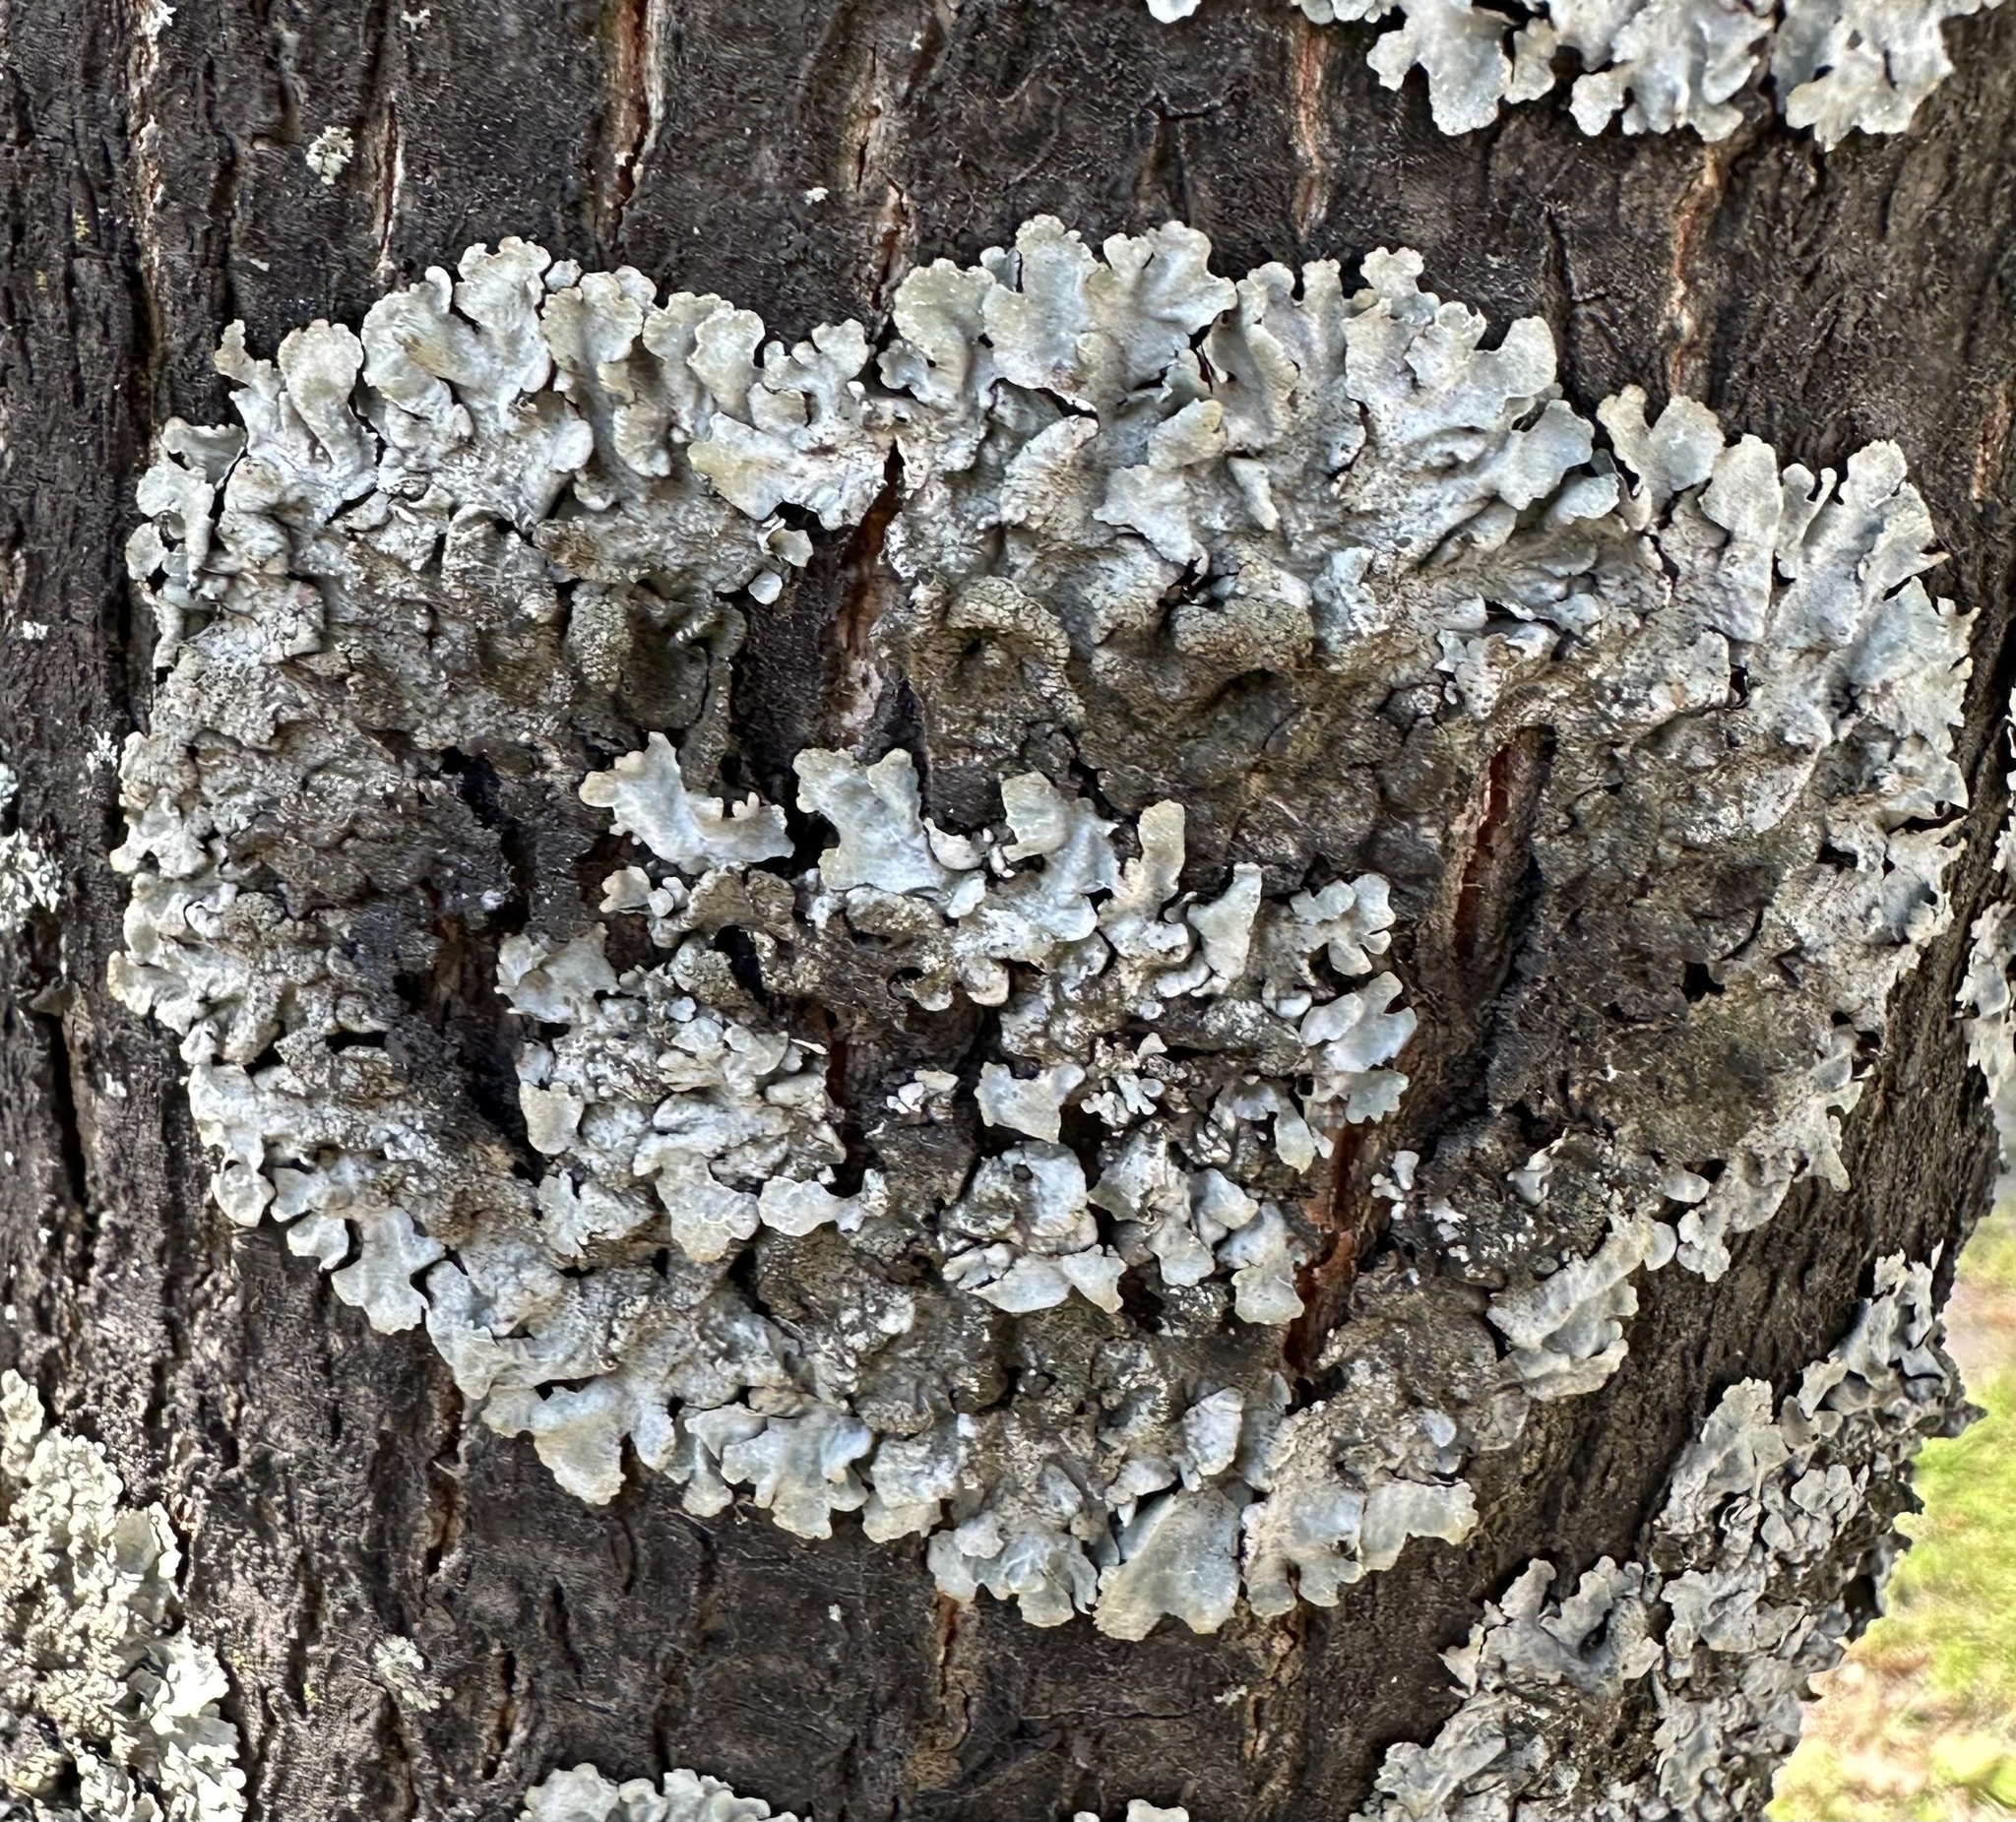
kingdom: Fungi
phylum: Ascomycota
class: Lecanoromycetes
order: Lecanorales
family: Parmeliaceae
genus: Parmelia
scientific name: Parmelia sulcata
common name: Netted shield lichen
